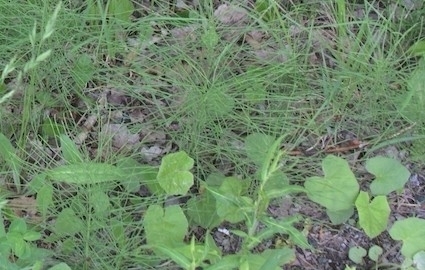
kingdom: Plantae
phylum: Tracheophyta
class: Magnoliopsida
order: Asterales
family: Asteraceae
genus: Tussilago
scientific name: Tussilago farfara
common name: Coltsfoot
